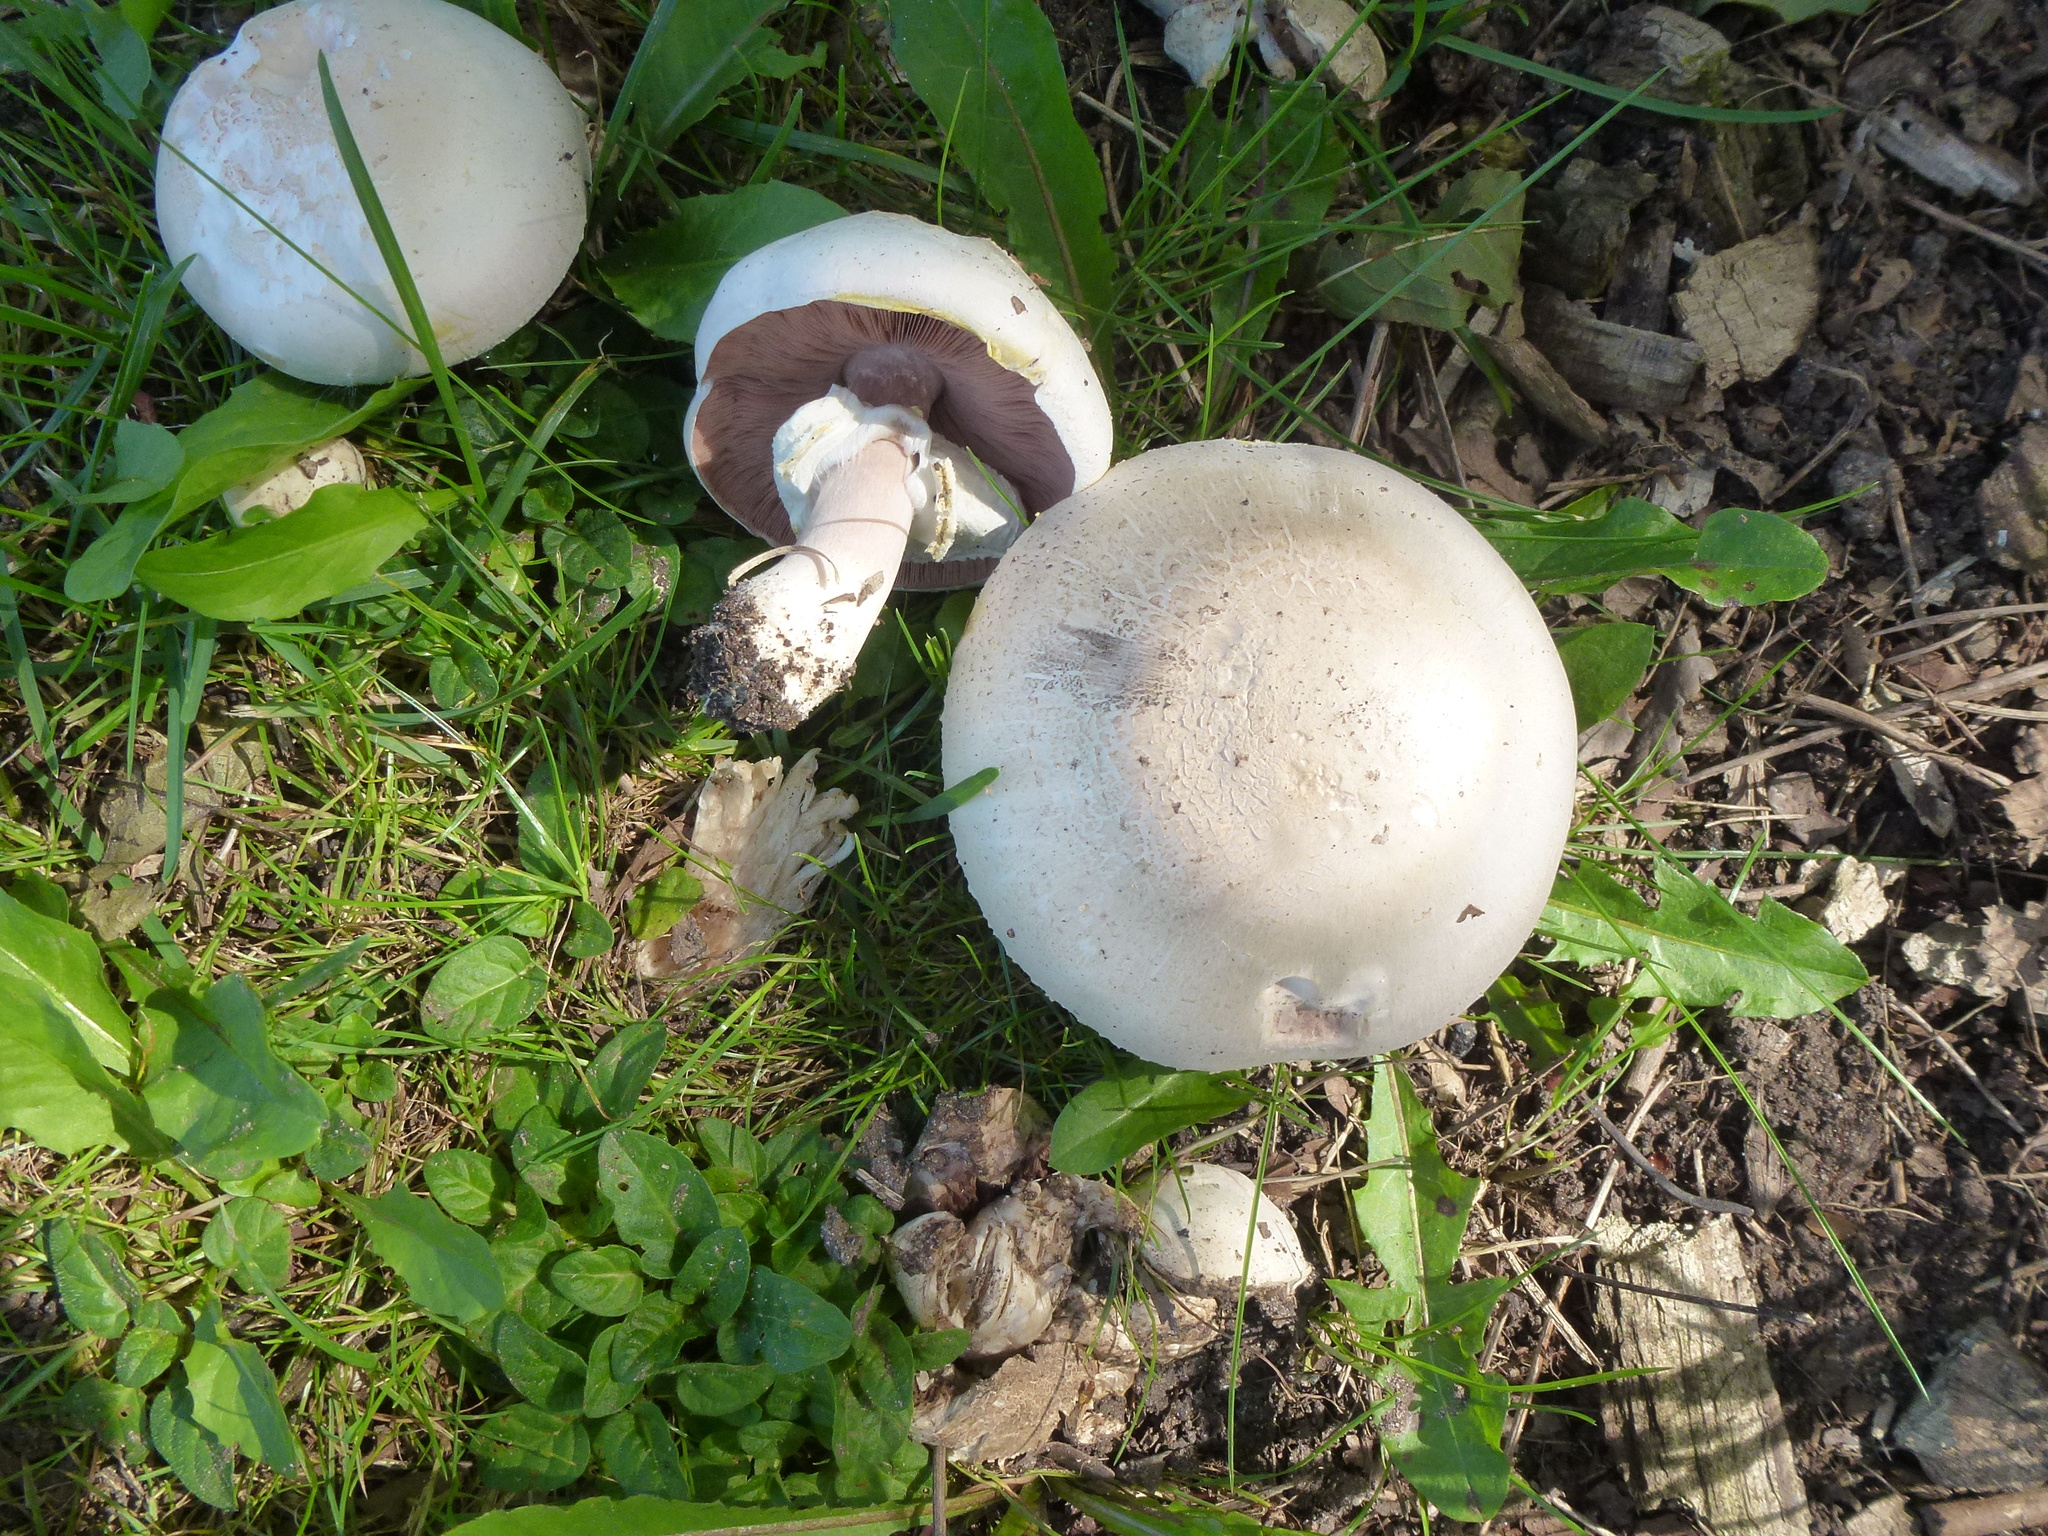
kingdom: Fungi
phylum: Basidiomycota
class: Agaricomycetes
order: Agaricales
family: Agaricaceae
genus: Agaricus
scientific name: Agaricus campestris
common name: Field mushroom
